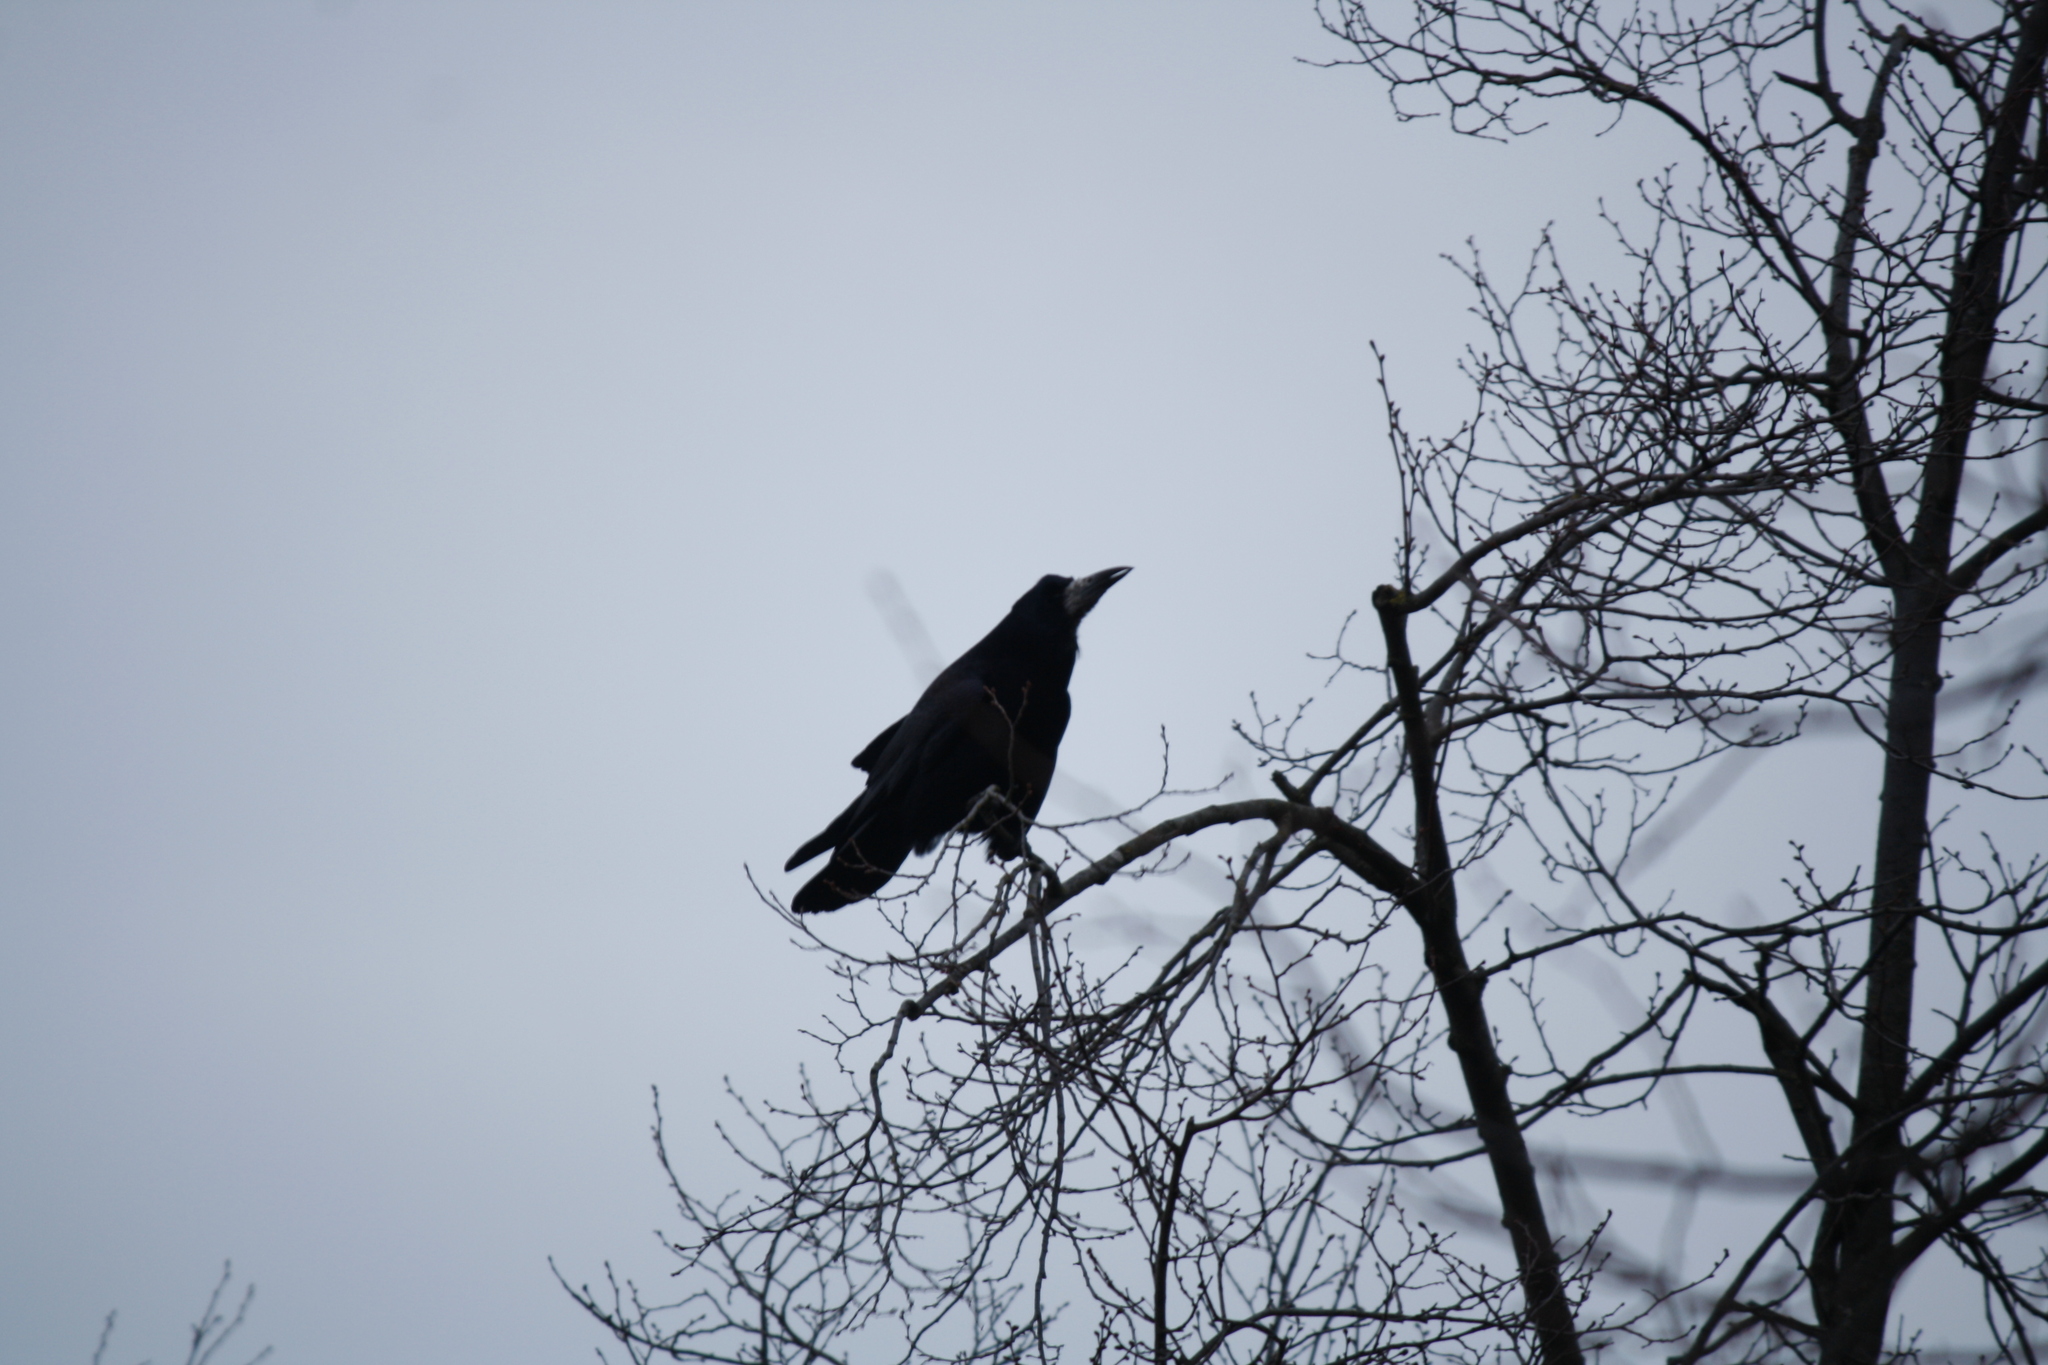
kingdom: Animalia
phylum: Chordata
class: Aves
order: Passeriformes
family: Corvidae
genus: Corvus
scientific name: Corvus frugilegus
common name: Rook
